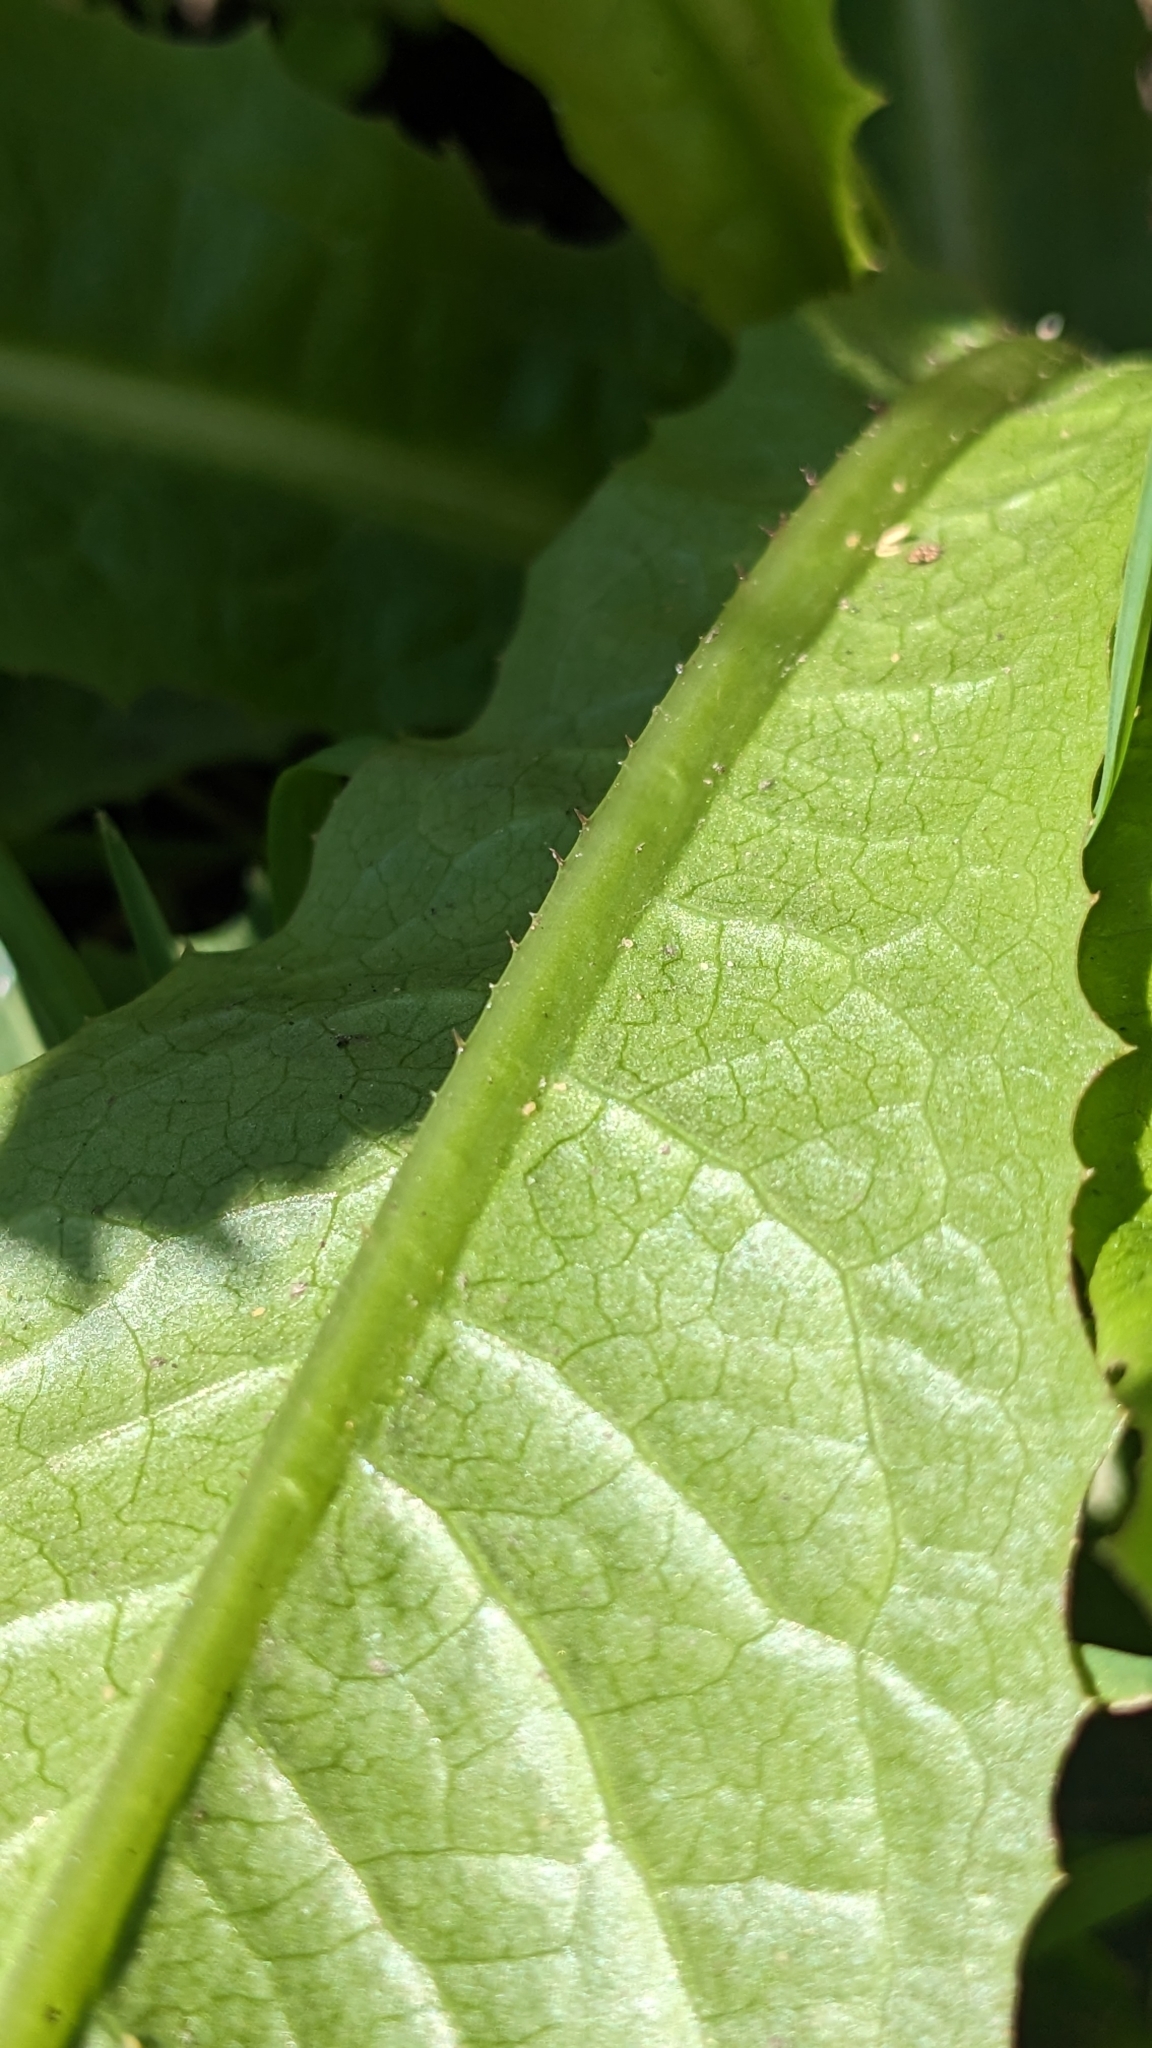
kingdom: Plantae
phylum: Tracheophyta
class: Magnoliopsida
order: Asterales
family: Asteraceae
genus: Lactuca
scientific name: Lactuca serriola
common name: Prickly lettuce
